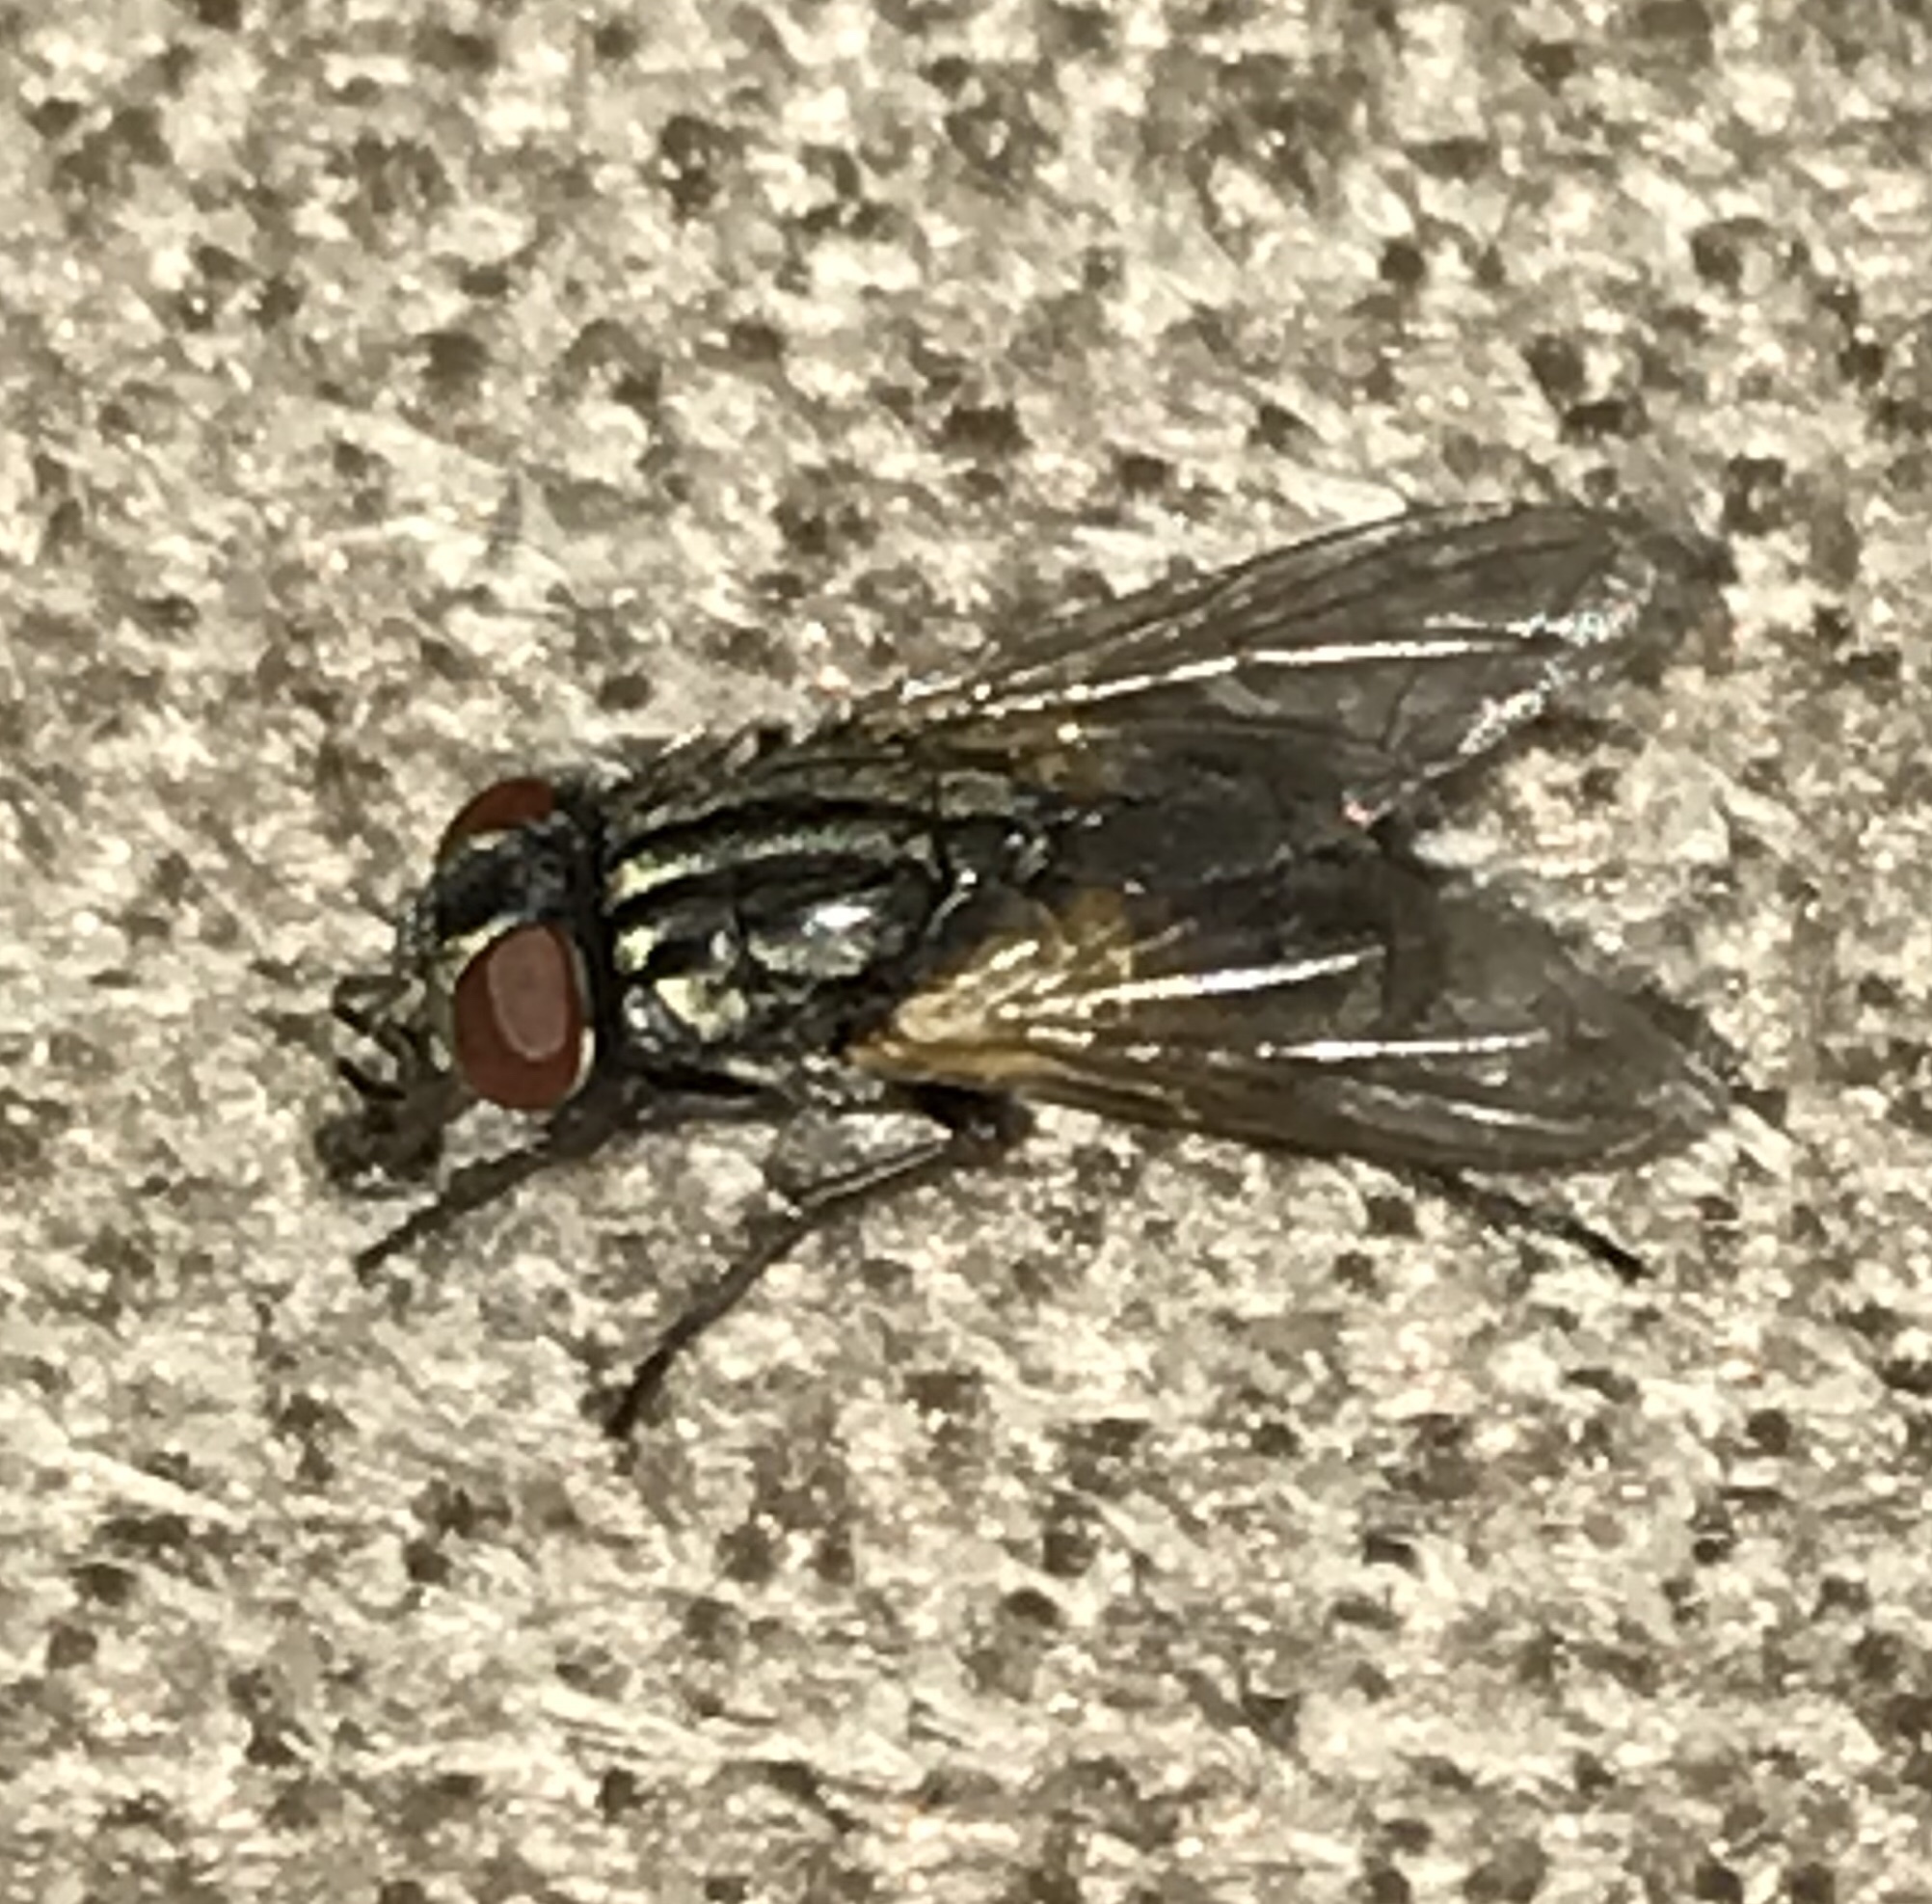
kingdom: Animalia
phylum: Arthropoda
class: Insecta
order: Diptera
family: Muscidae
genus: Musca
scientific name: Musca domestica
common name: House fly
